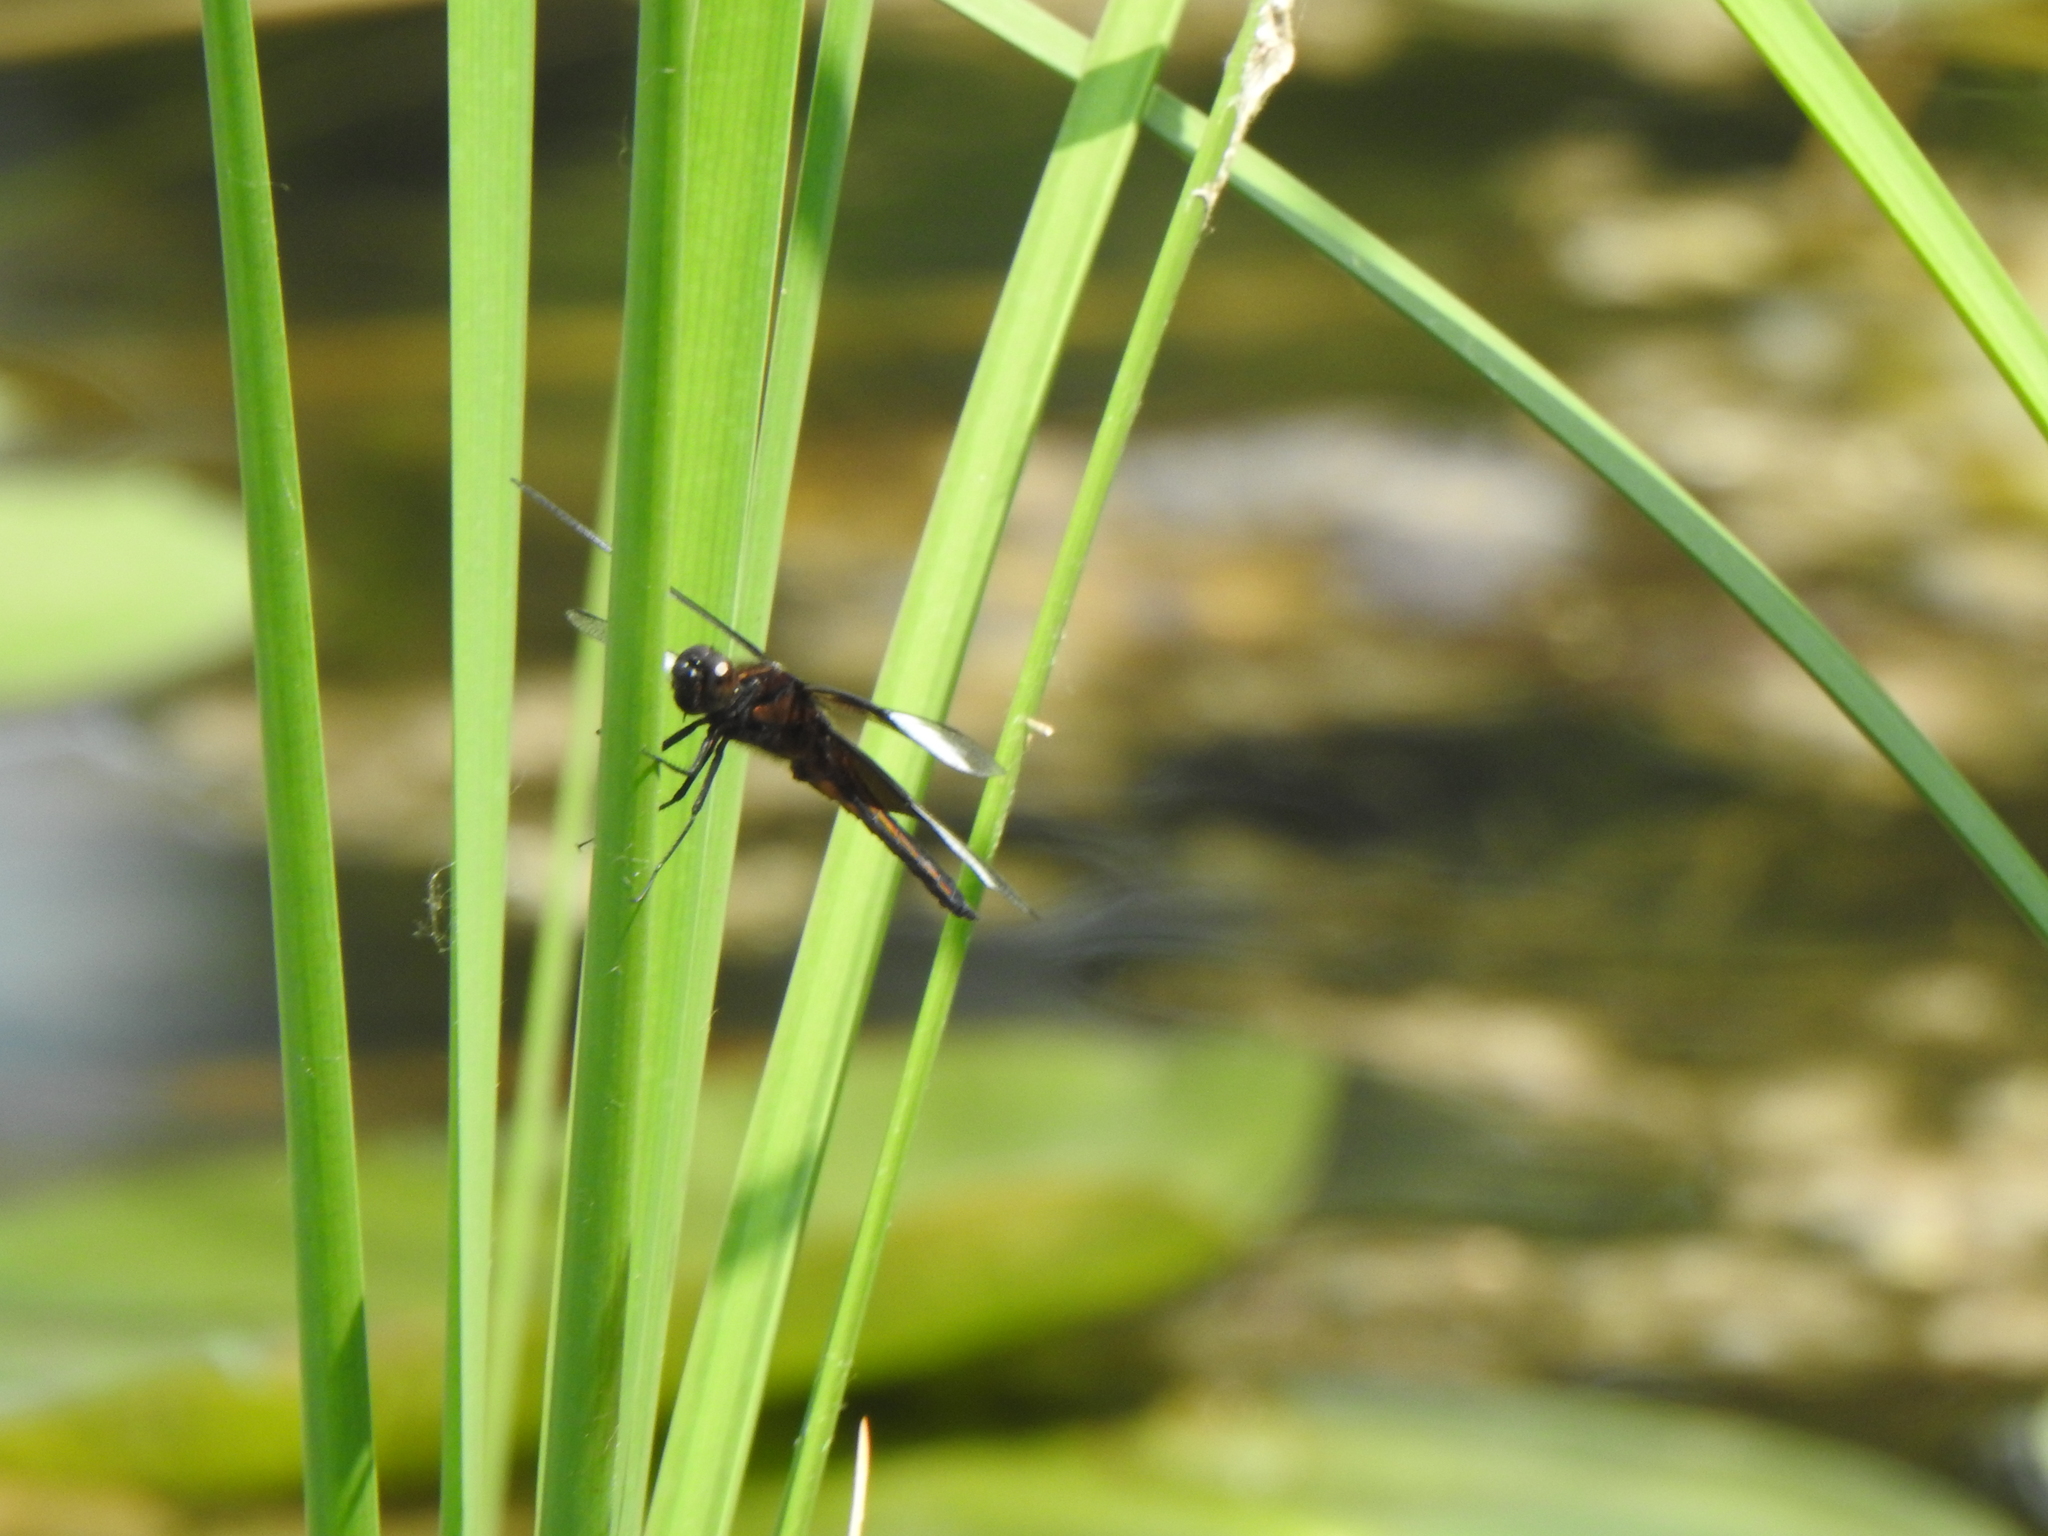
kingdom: Animalia
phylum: Arthropoda
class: Insecta
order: Odonata
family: Libellulidae
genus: Libellula
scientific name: Libellula luctuosa
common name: Widow skimmer
